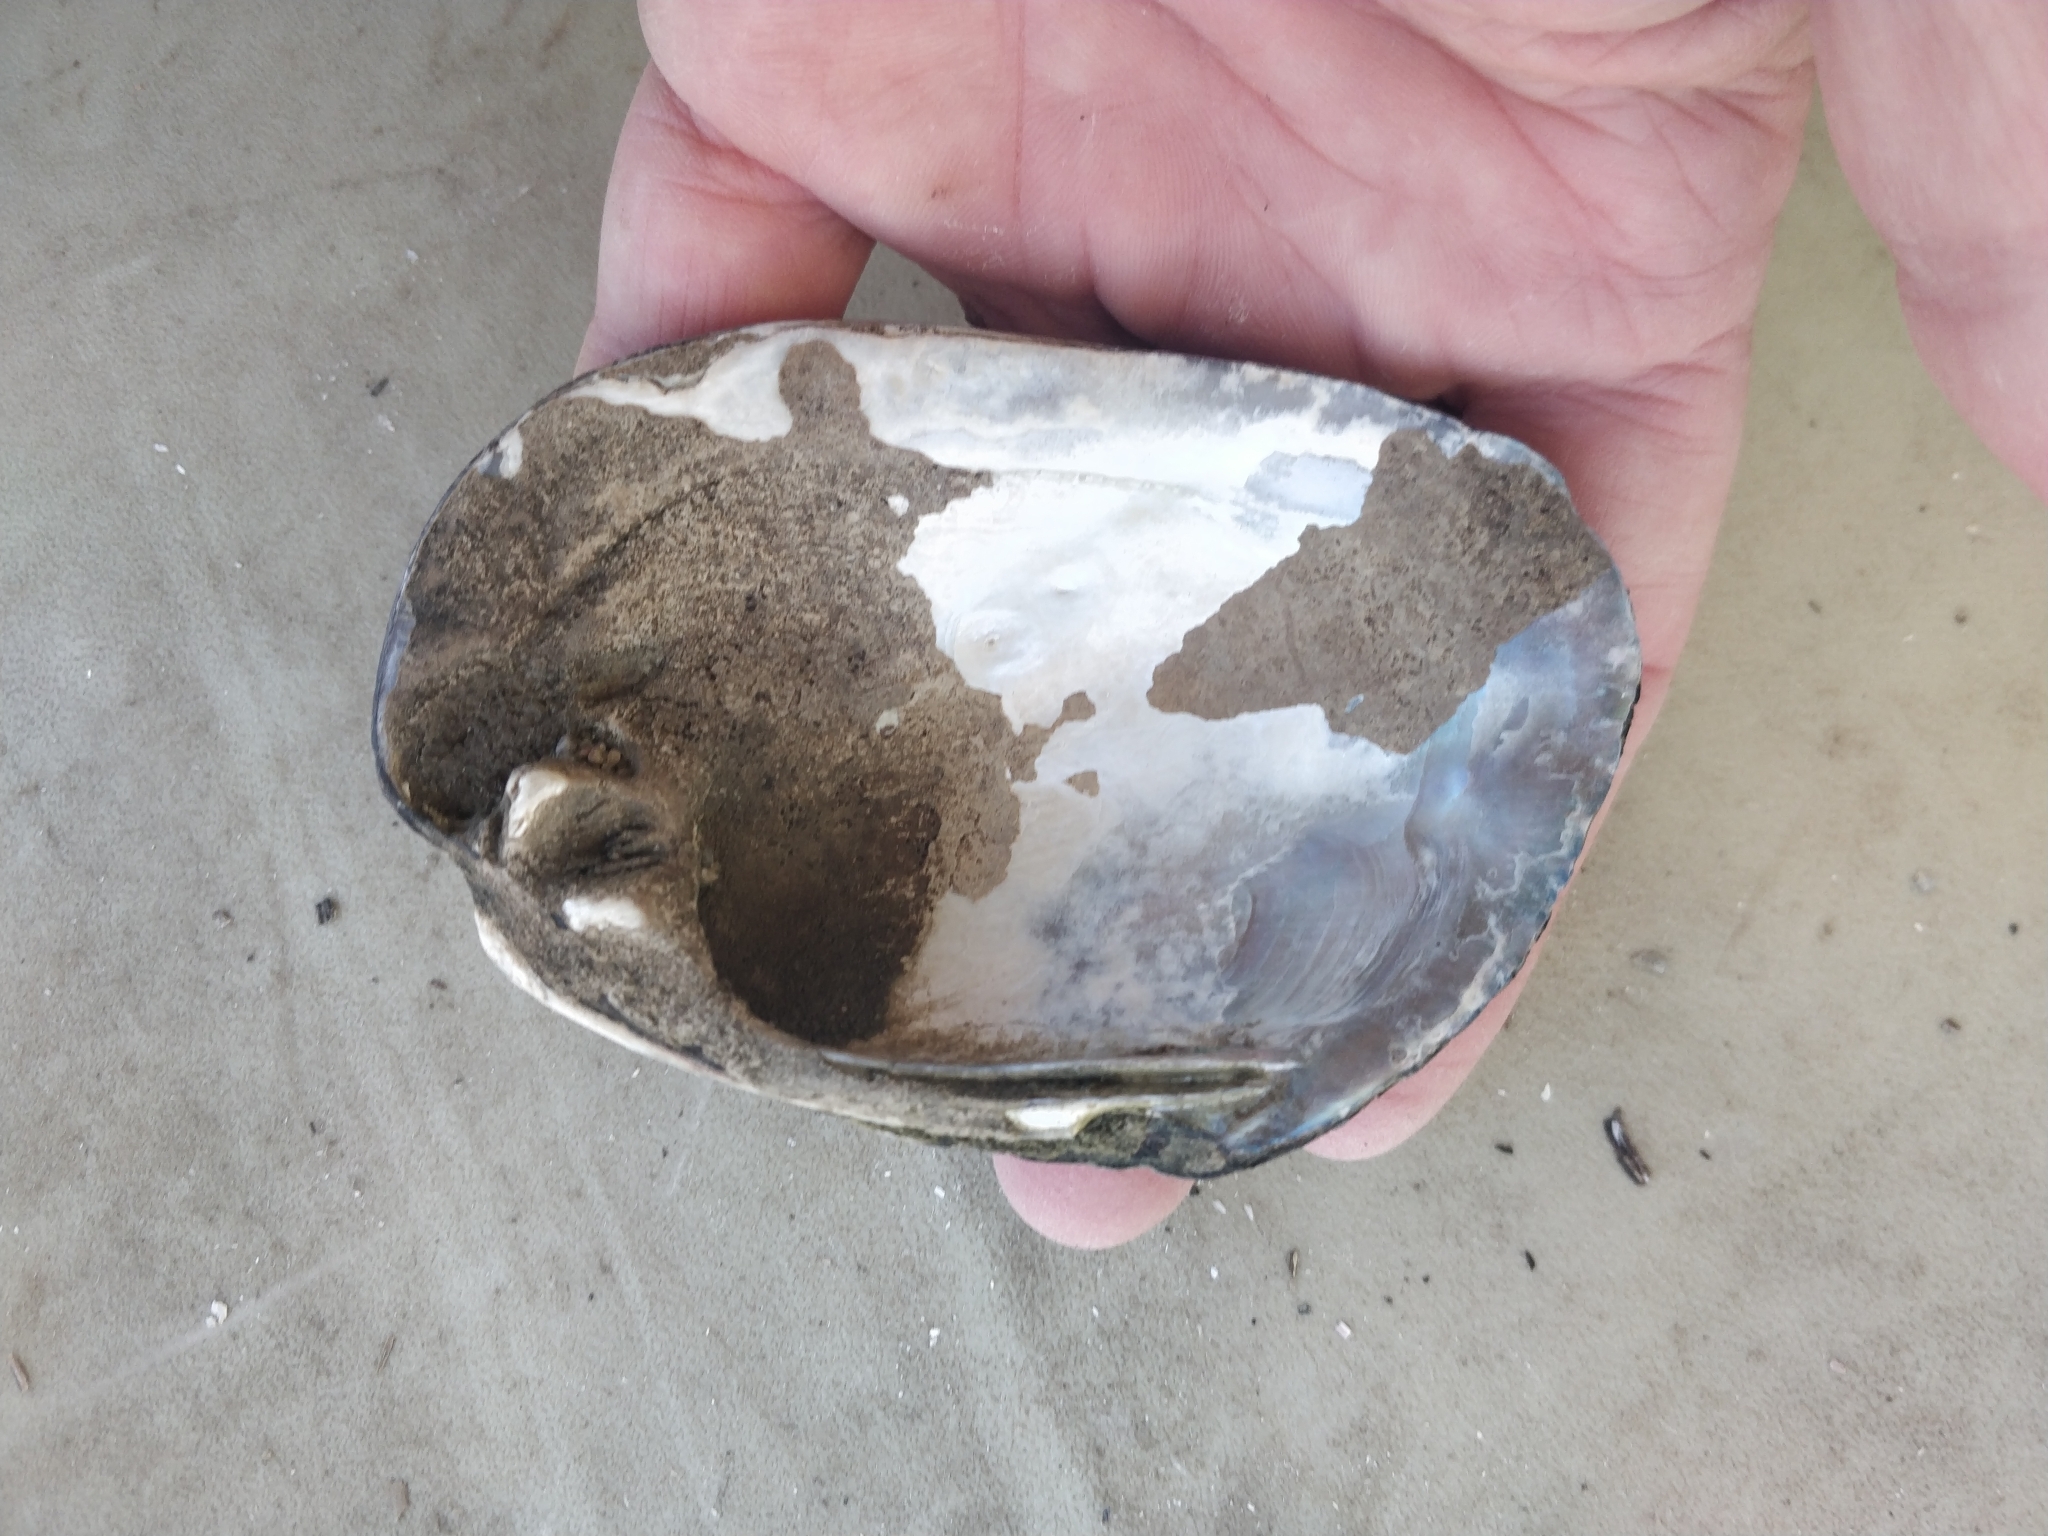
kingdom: Animalia
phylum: Mollusca
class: Bivalvia
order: Unionida
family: Unionidae
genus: Amblema
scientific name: Amblema plicata
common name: Threeridge
